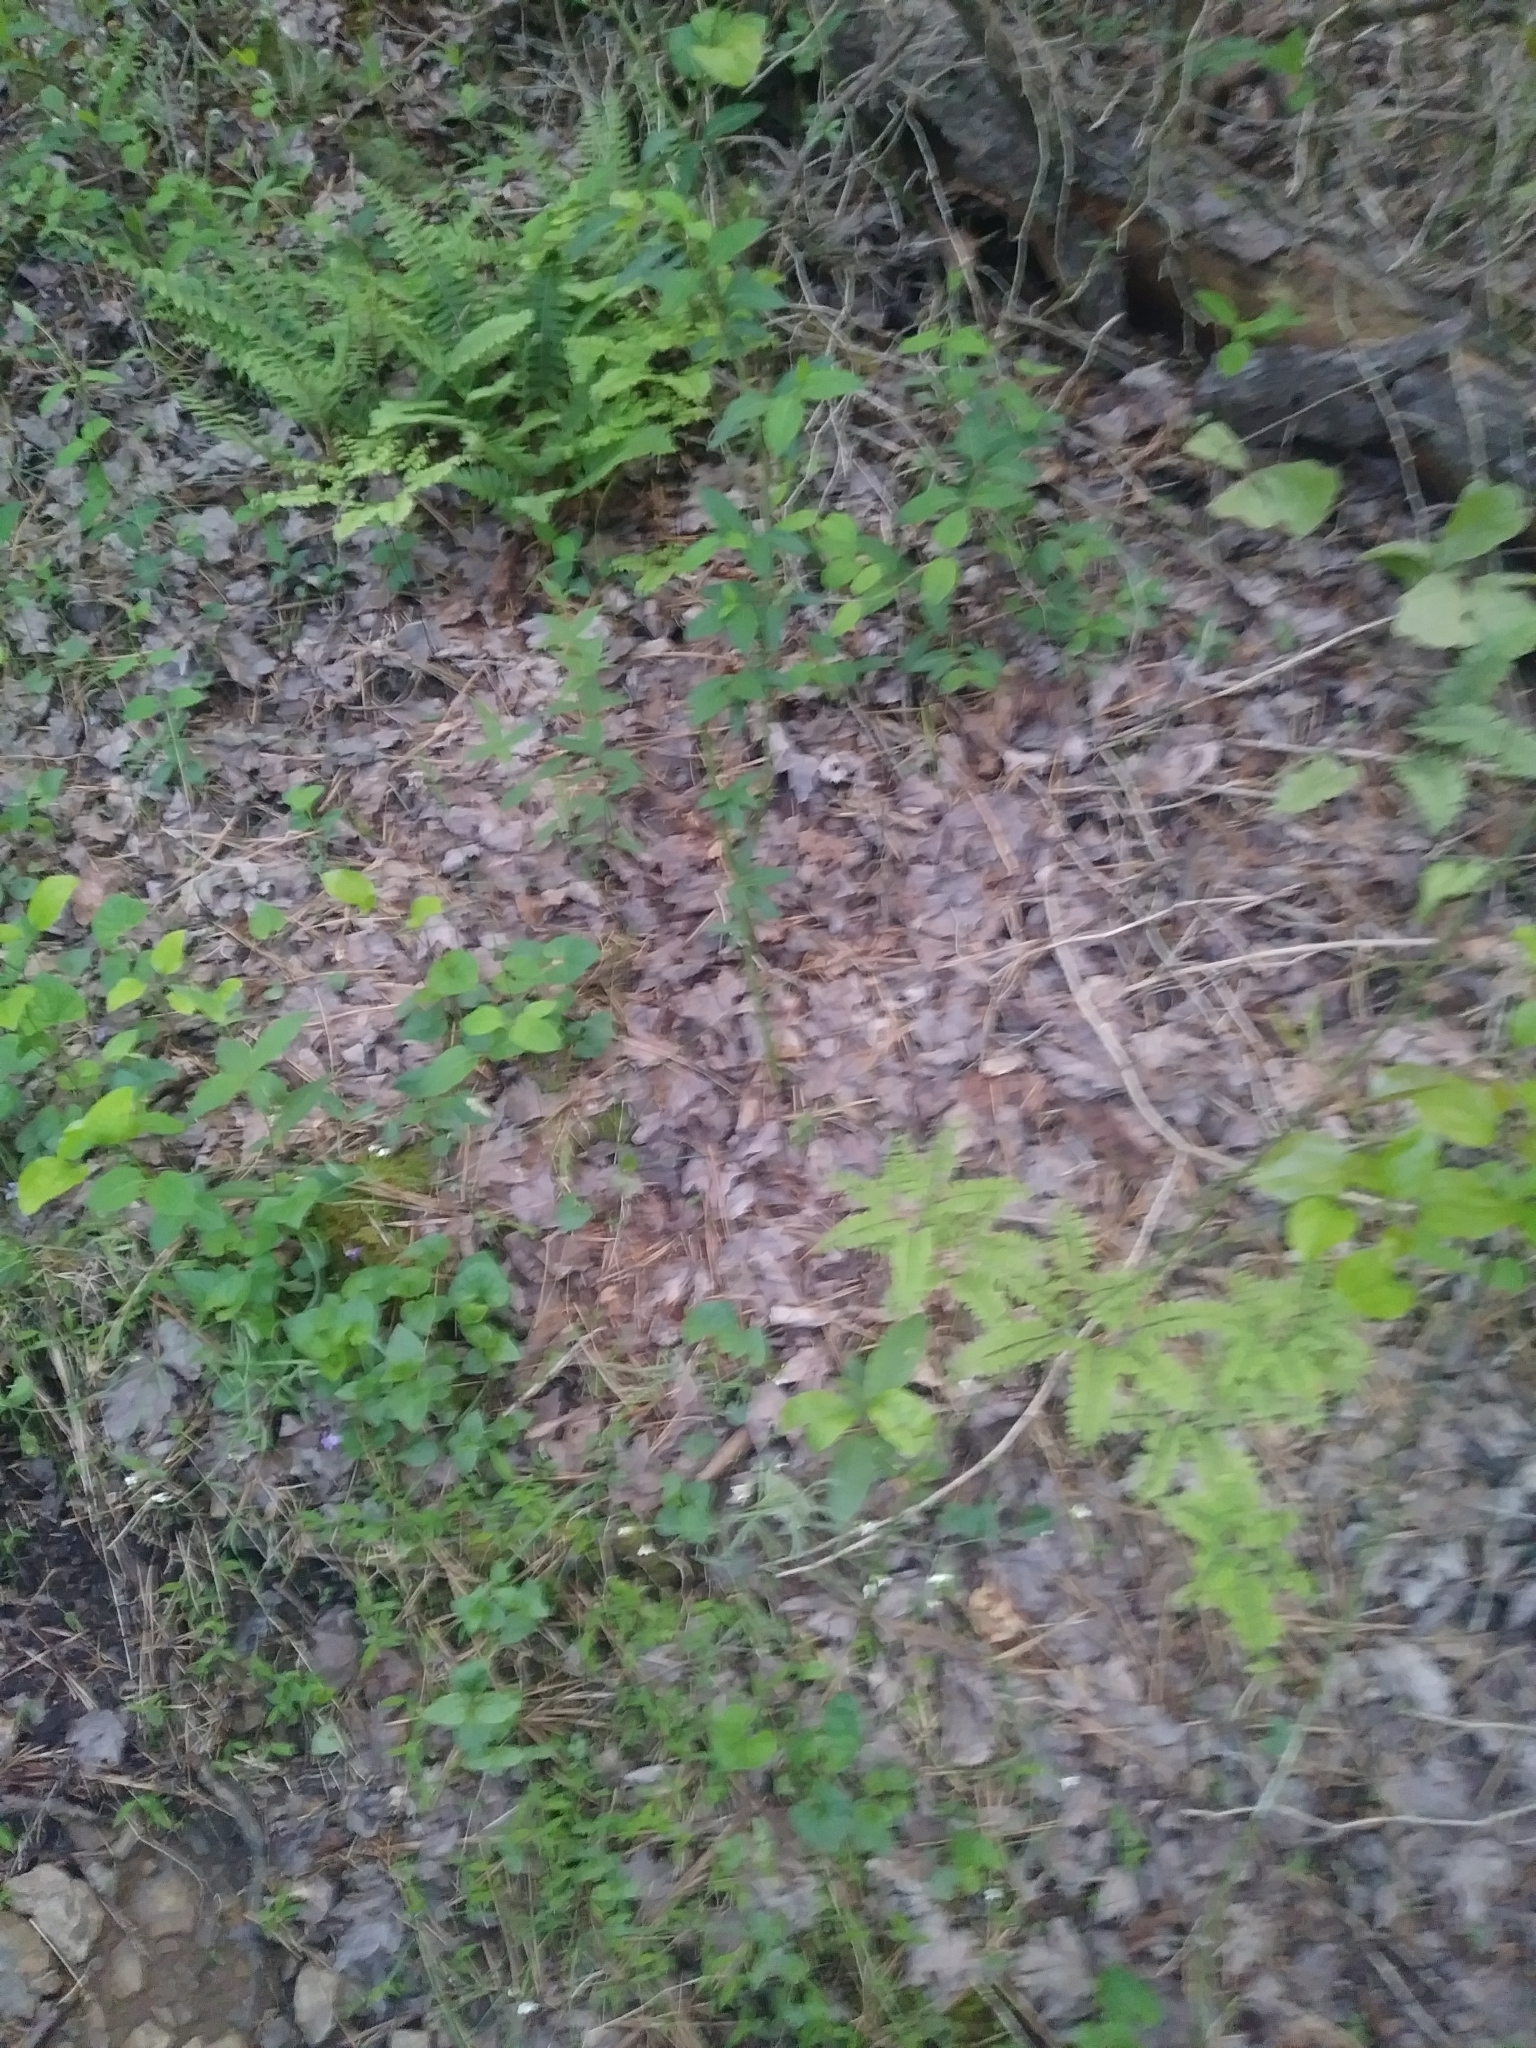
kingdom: Plantae
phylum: Tracheophyta
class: Polypodiopsida
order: Polypodiales
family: Pteridaceae
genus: Adiantum
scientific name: Adiantum pedatum
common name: Five-finger fern
